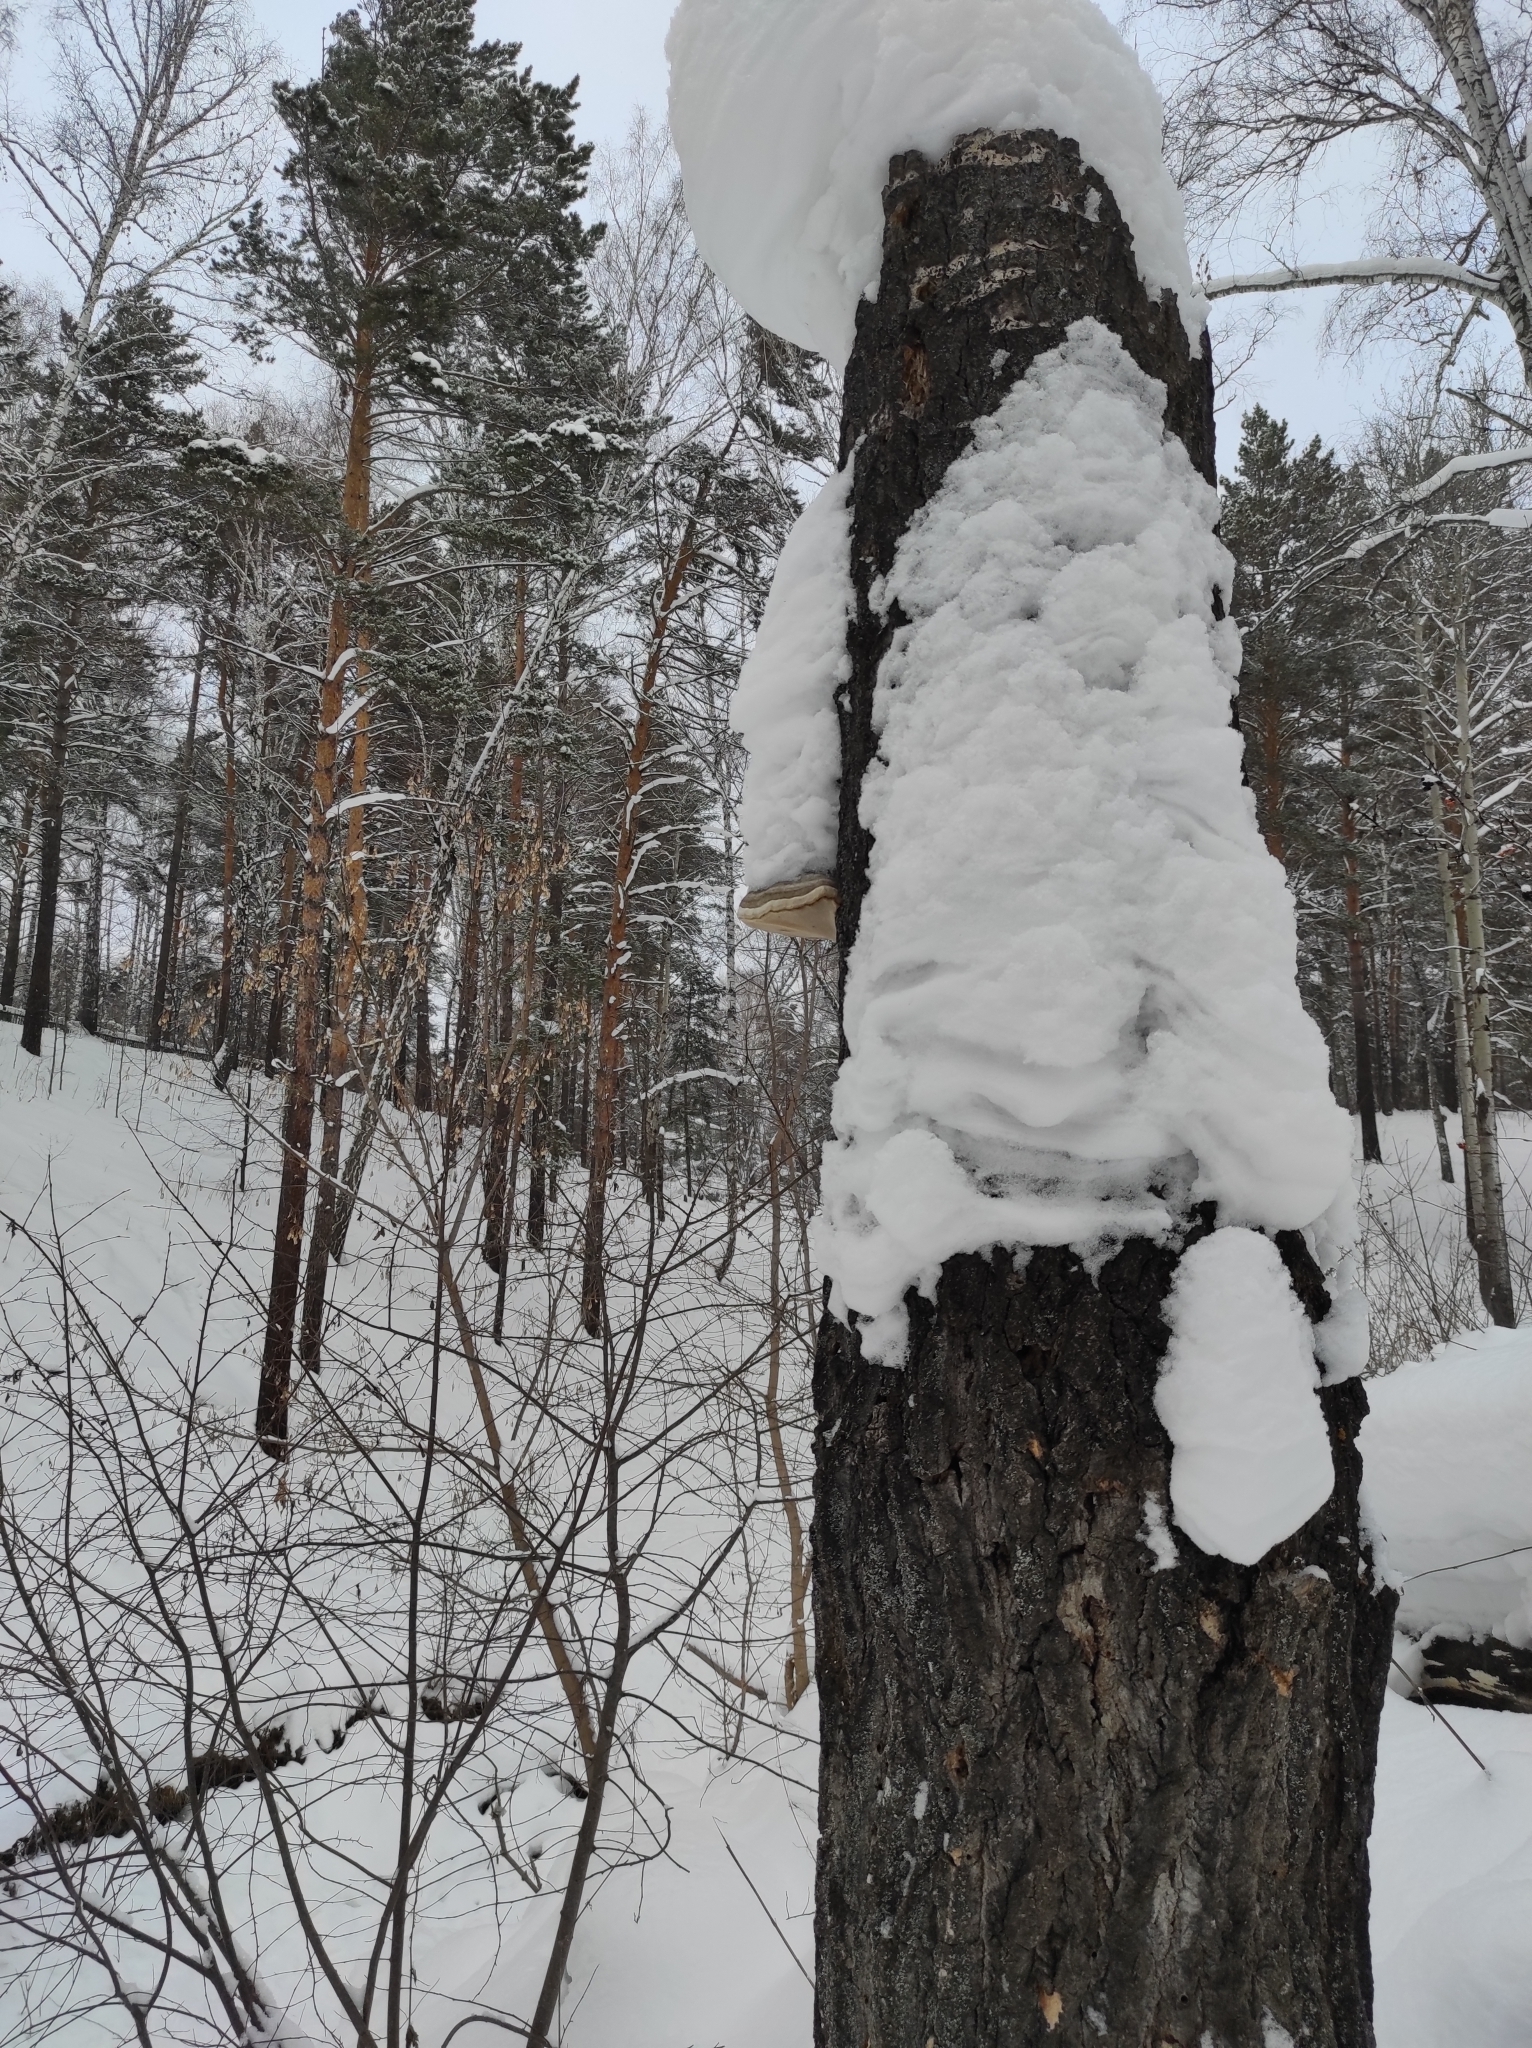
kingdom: Fungi
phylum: Basidiomycota
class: Agaricomycetes
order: Polyporales
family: Polyporaceae
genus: Fomes
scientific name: Fomes fomentarius
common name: Hoof fungus
